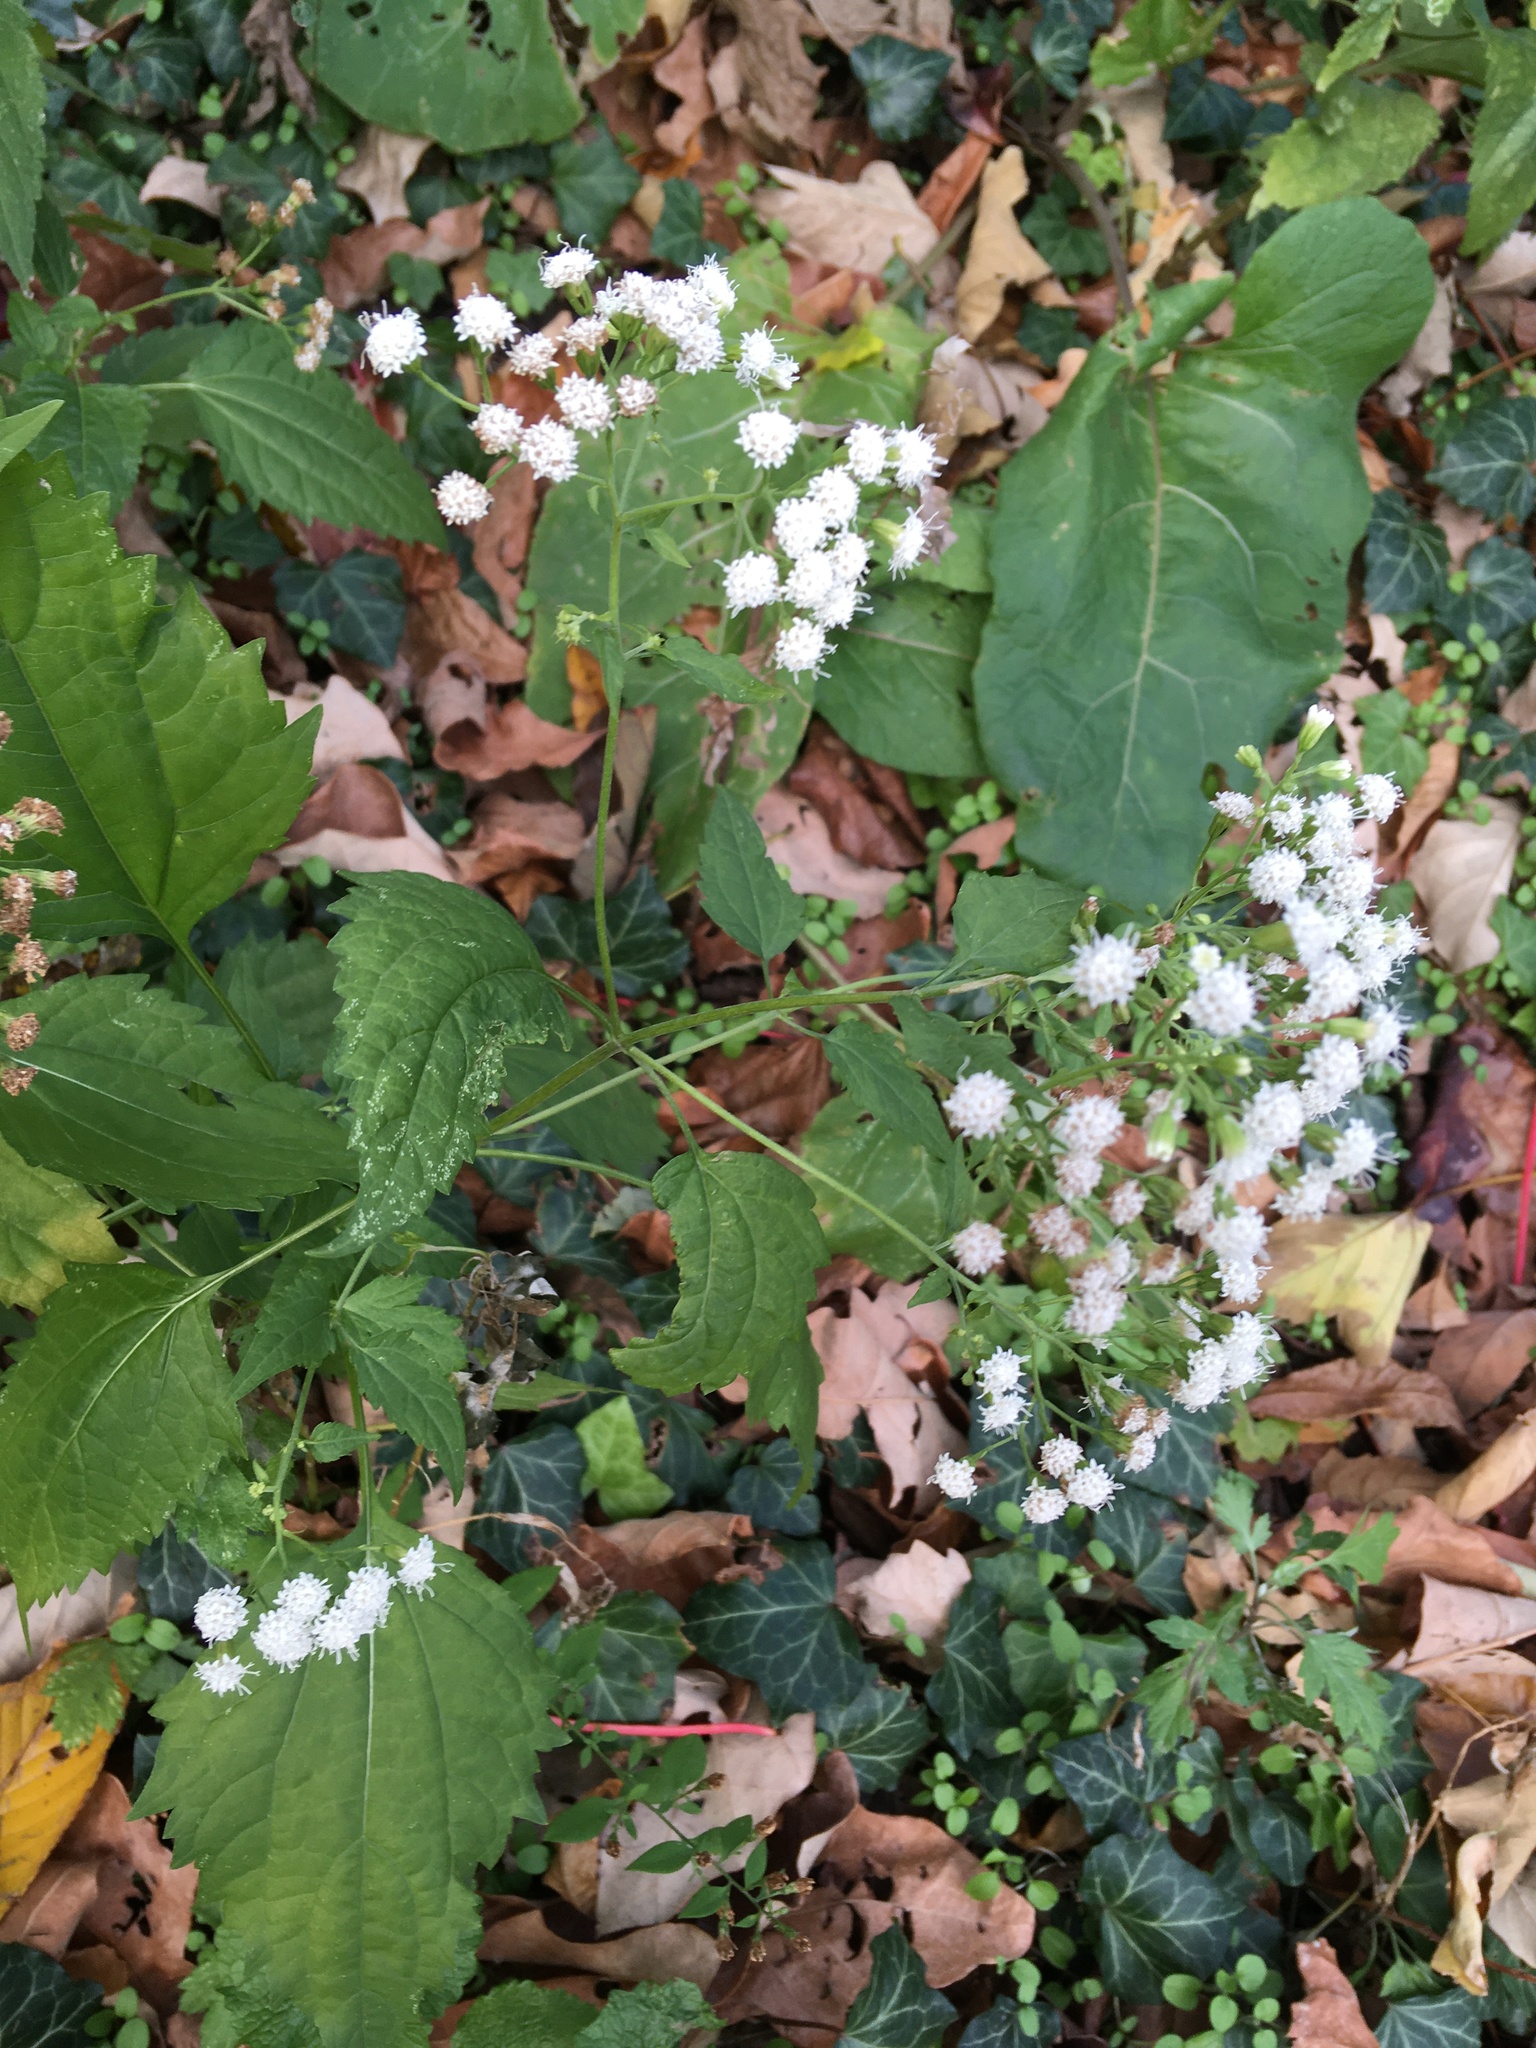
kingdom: Plantae
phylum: Tracheophyta
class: Magnoliopsida
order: Asterales
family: Asteraceae
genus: Ageratina
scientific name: Ageratina altissima
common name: White snakeroot
